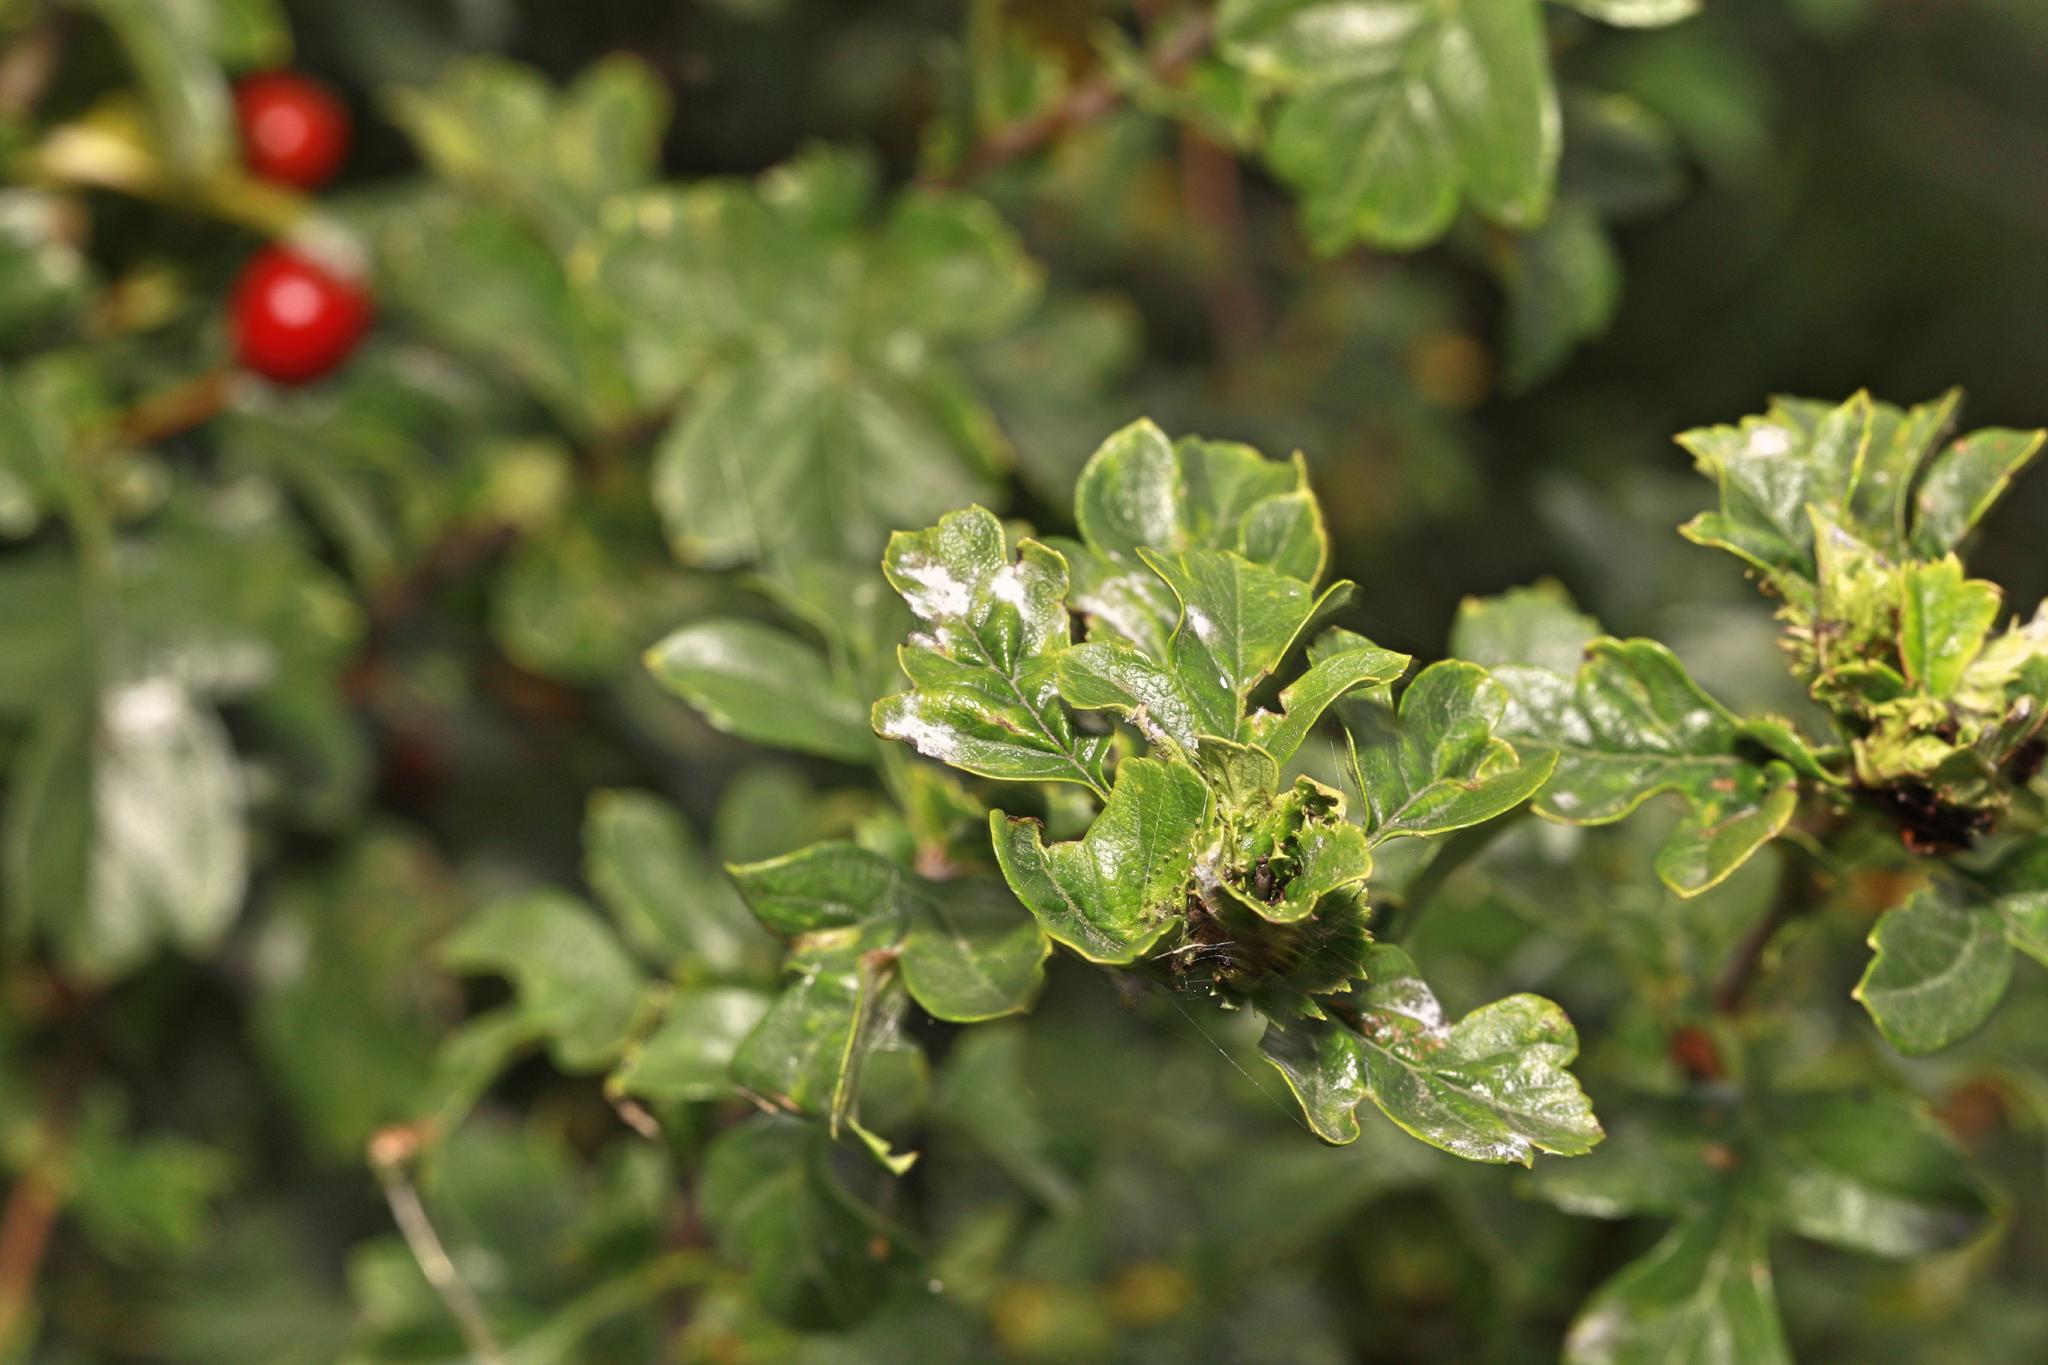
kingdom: Plantae
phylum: Tracheophyta
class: Magnoliopsida
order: Rosales
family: Rosaceae
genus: Crataegus
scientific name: Crataegus monogyna
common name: Hawthorn
